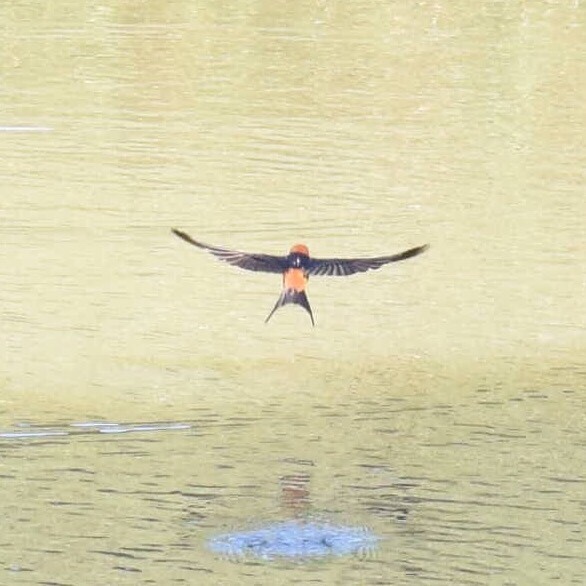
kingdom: Animalia
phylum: Chordata
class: Aves
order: Passeriformes
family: Hirundinidae
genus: Cecropis
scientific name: Cecropis abyssinica
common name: Lesser striped-swallow
